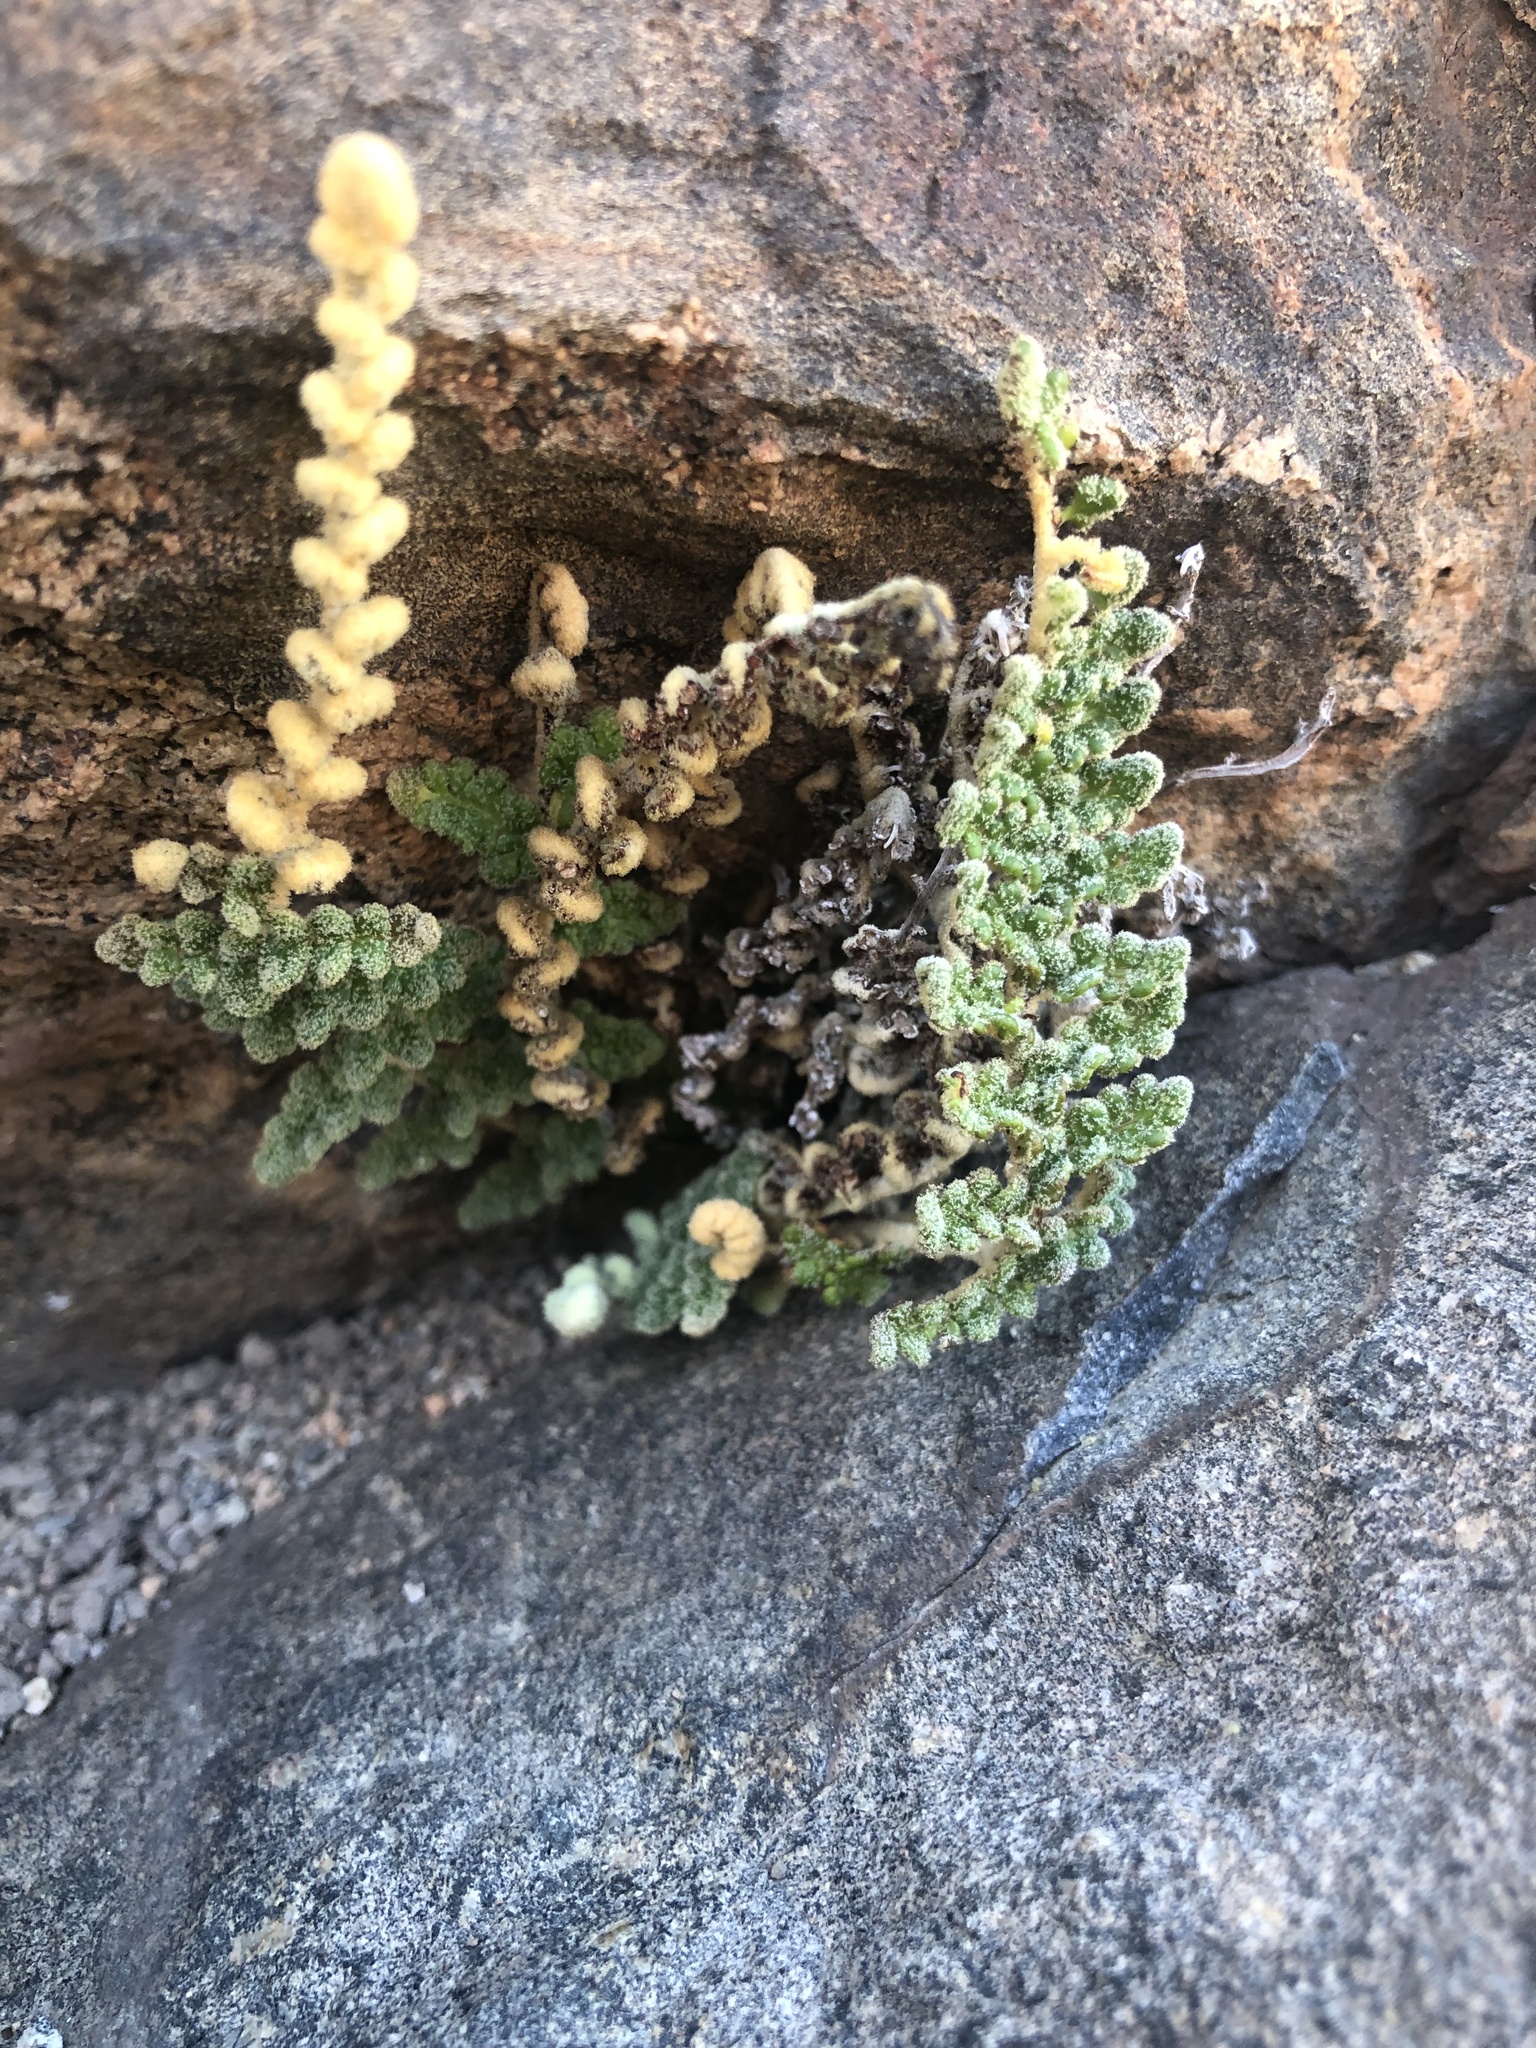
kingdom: Plantae
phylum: Tracheophyta
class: Polypodiopsida
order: Polypodiales
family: Pteridaceae
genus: Cheilanthes
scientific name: Cheilanthes hypoleuca
